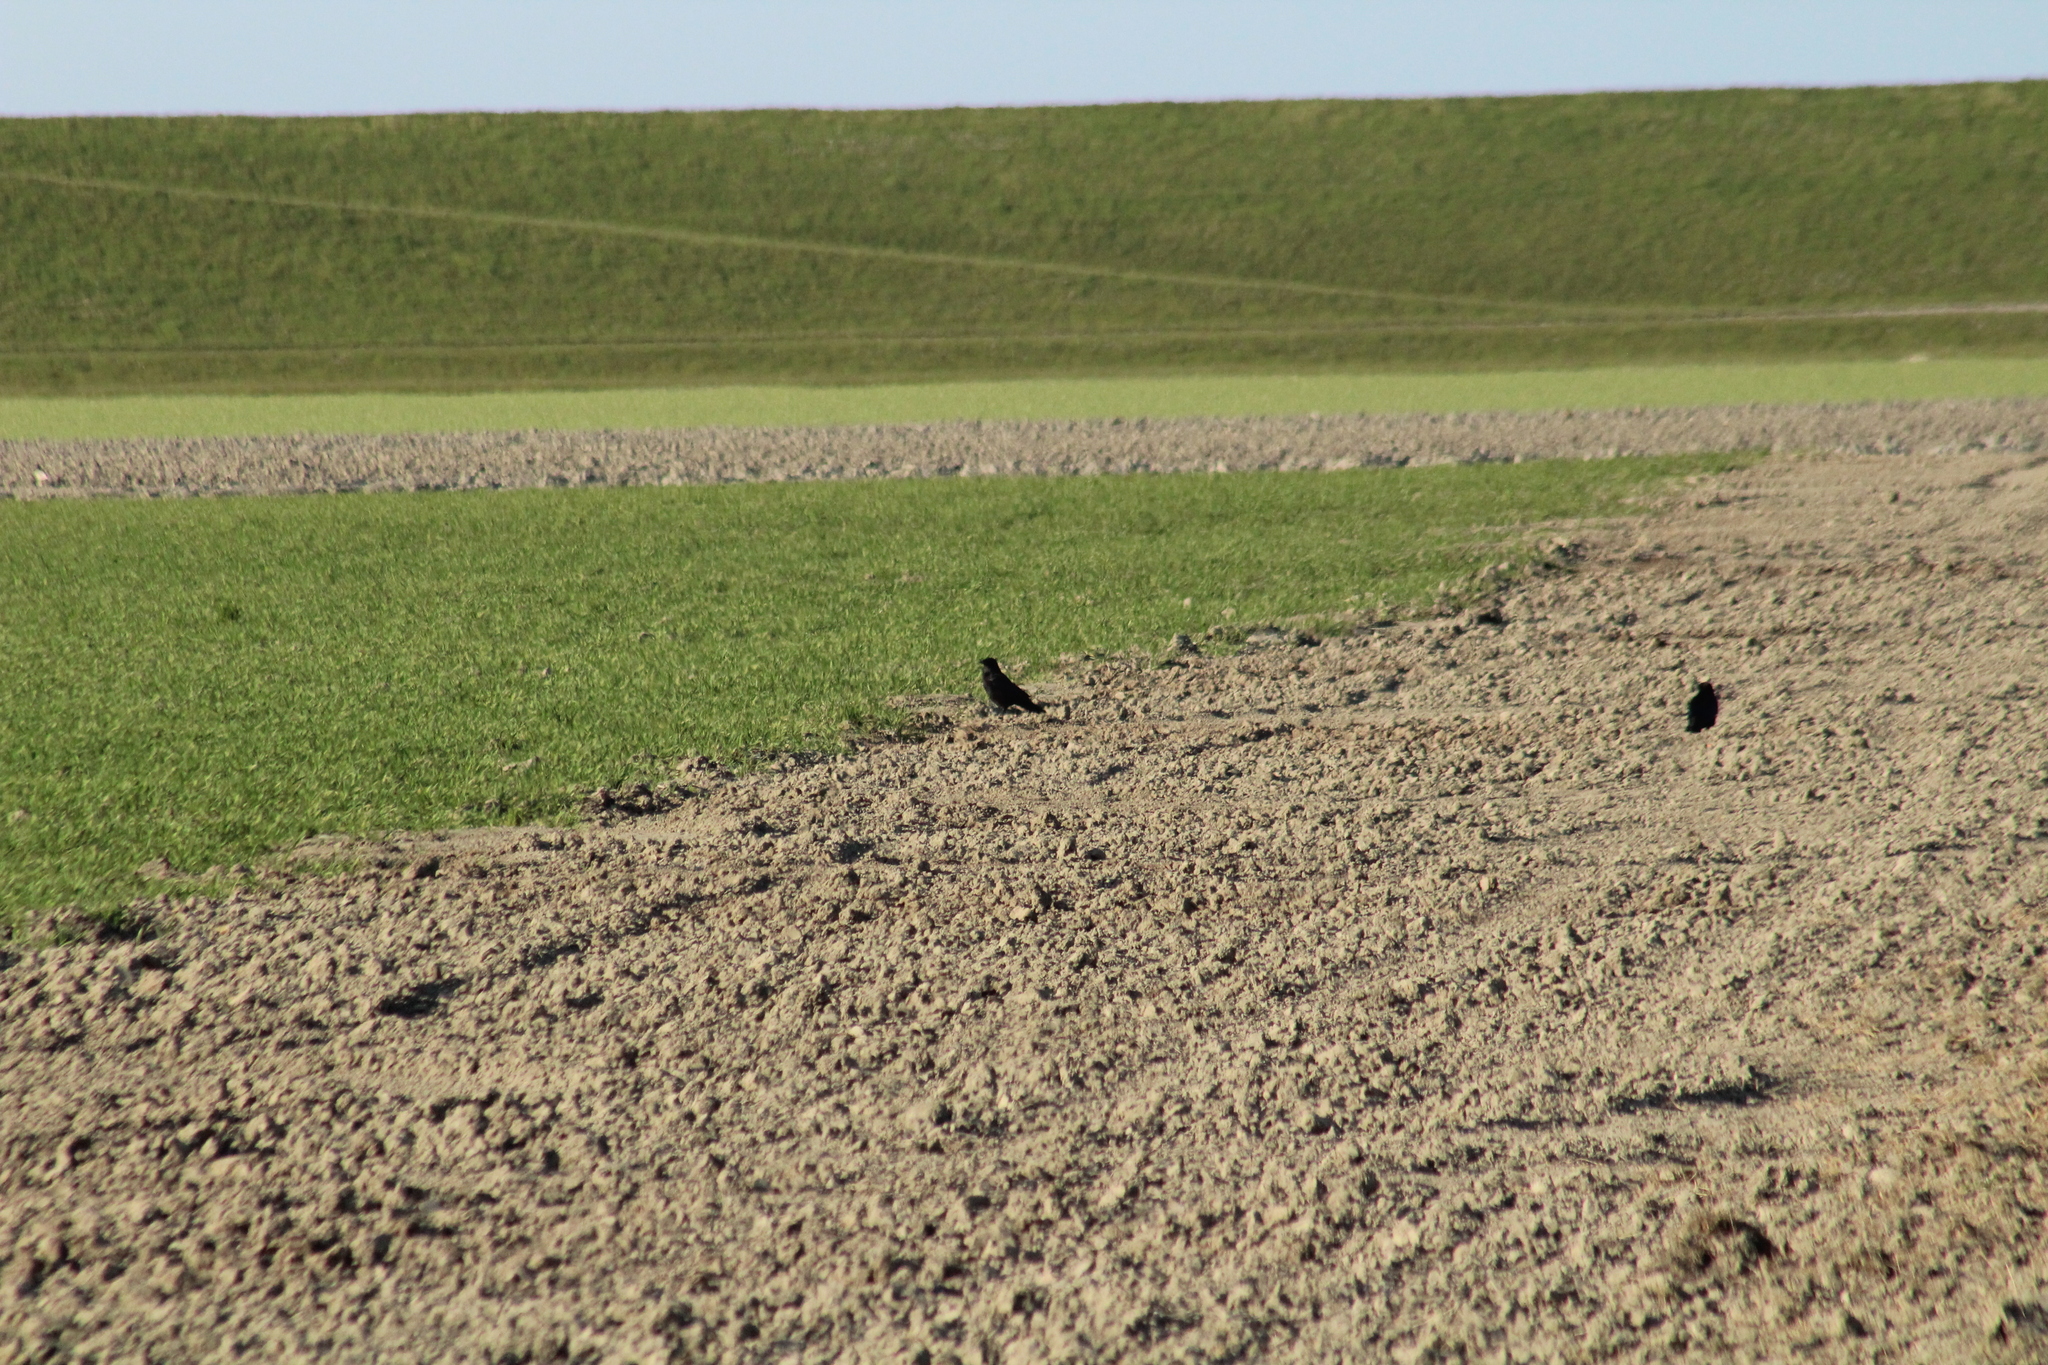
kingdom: Animalia
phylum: Chordata
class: Aves
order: Passeriformes
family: Corvidae
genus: Corvus
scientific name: Corvus corone
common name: Carrion crow
